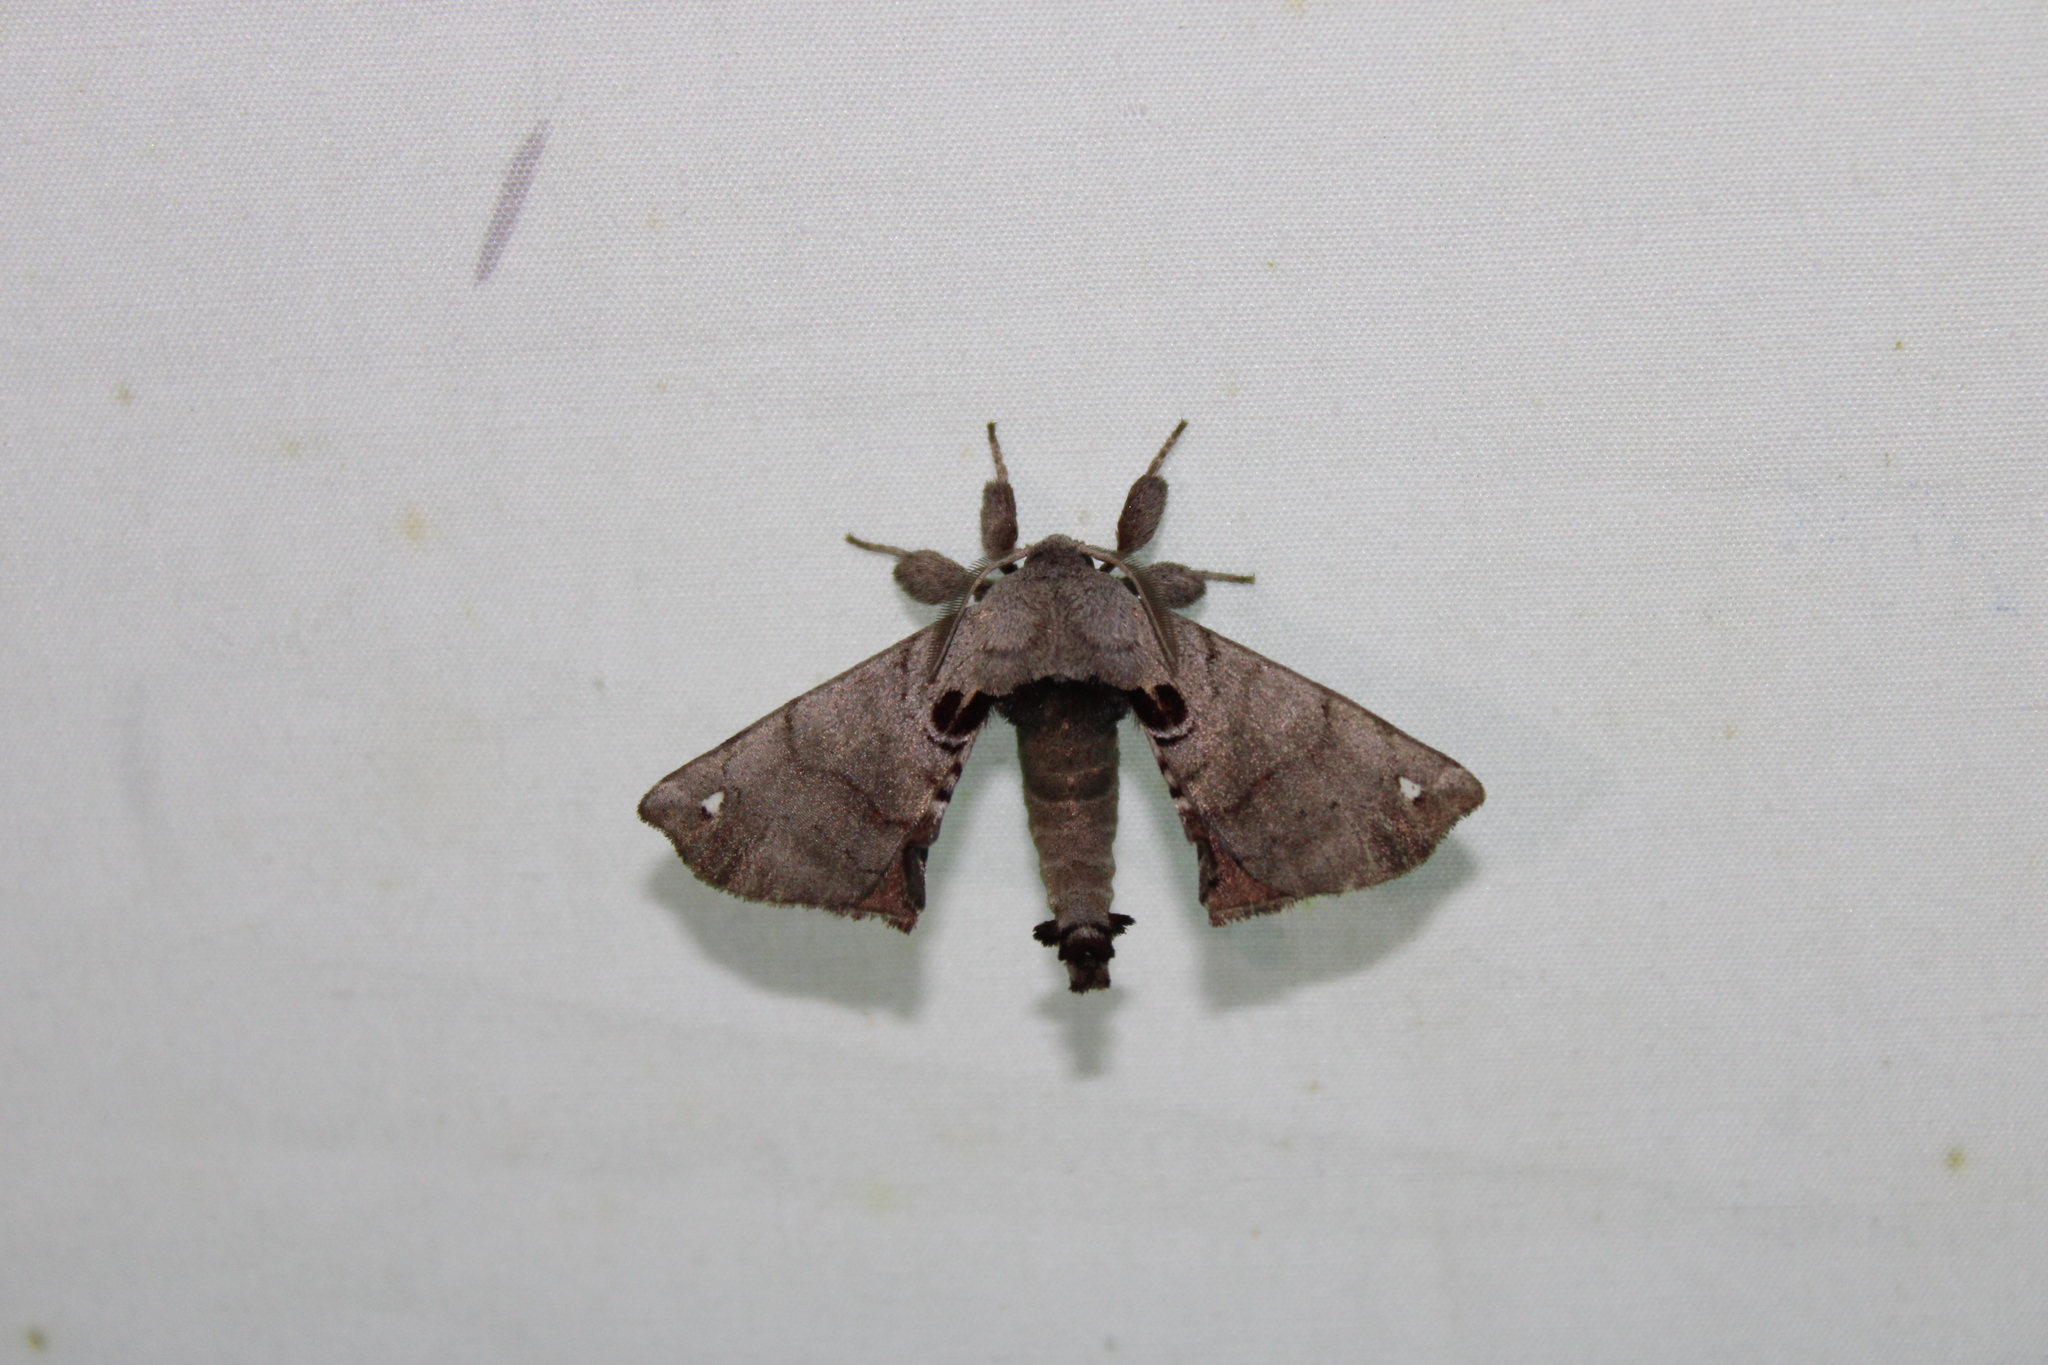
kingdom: Animalia
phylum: Arthropoda
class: Insecta
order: Lepidoptera
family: Apatelodidae
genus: Hygrochroa
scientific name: Hygrochroa Apatelodes torrefacta
